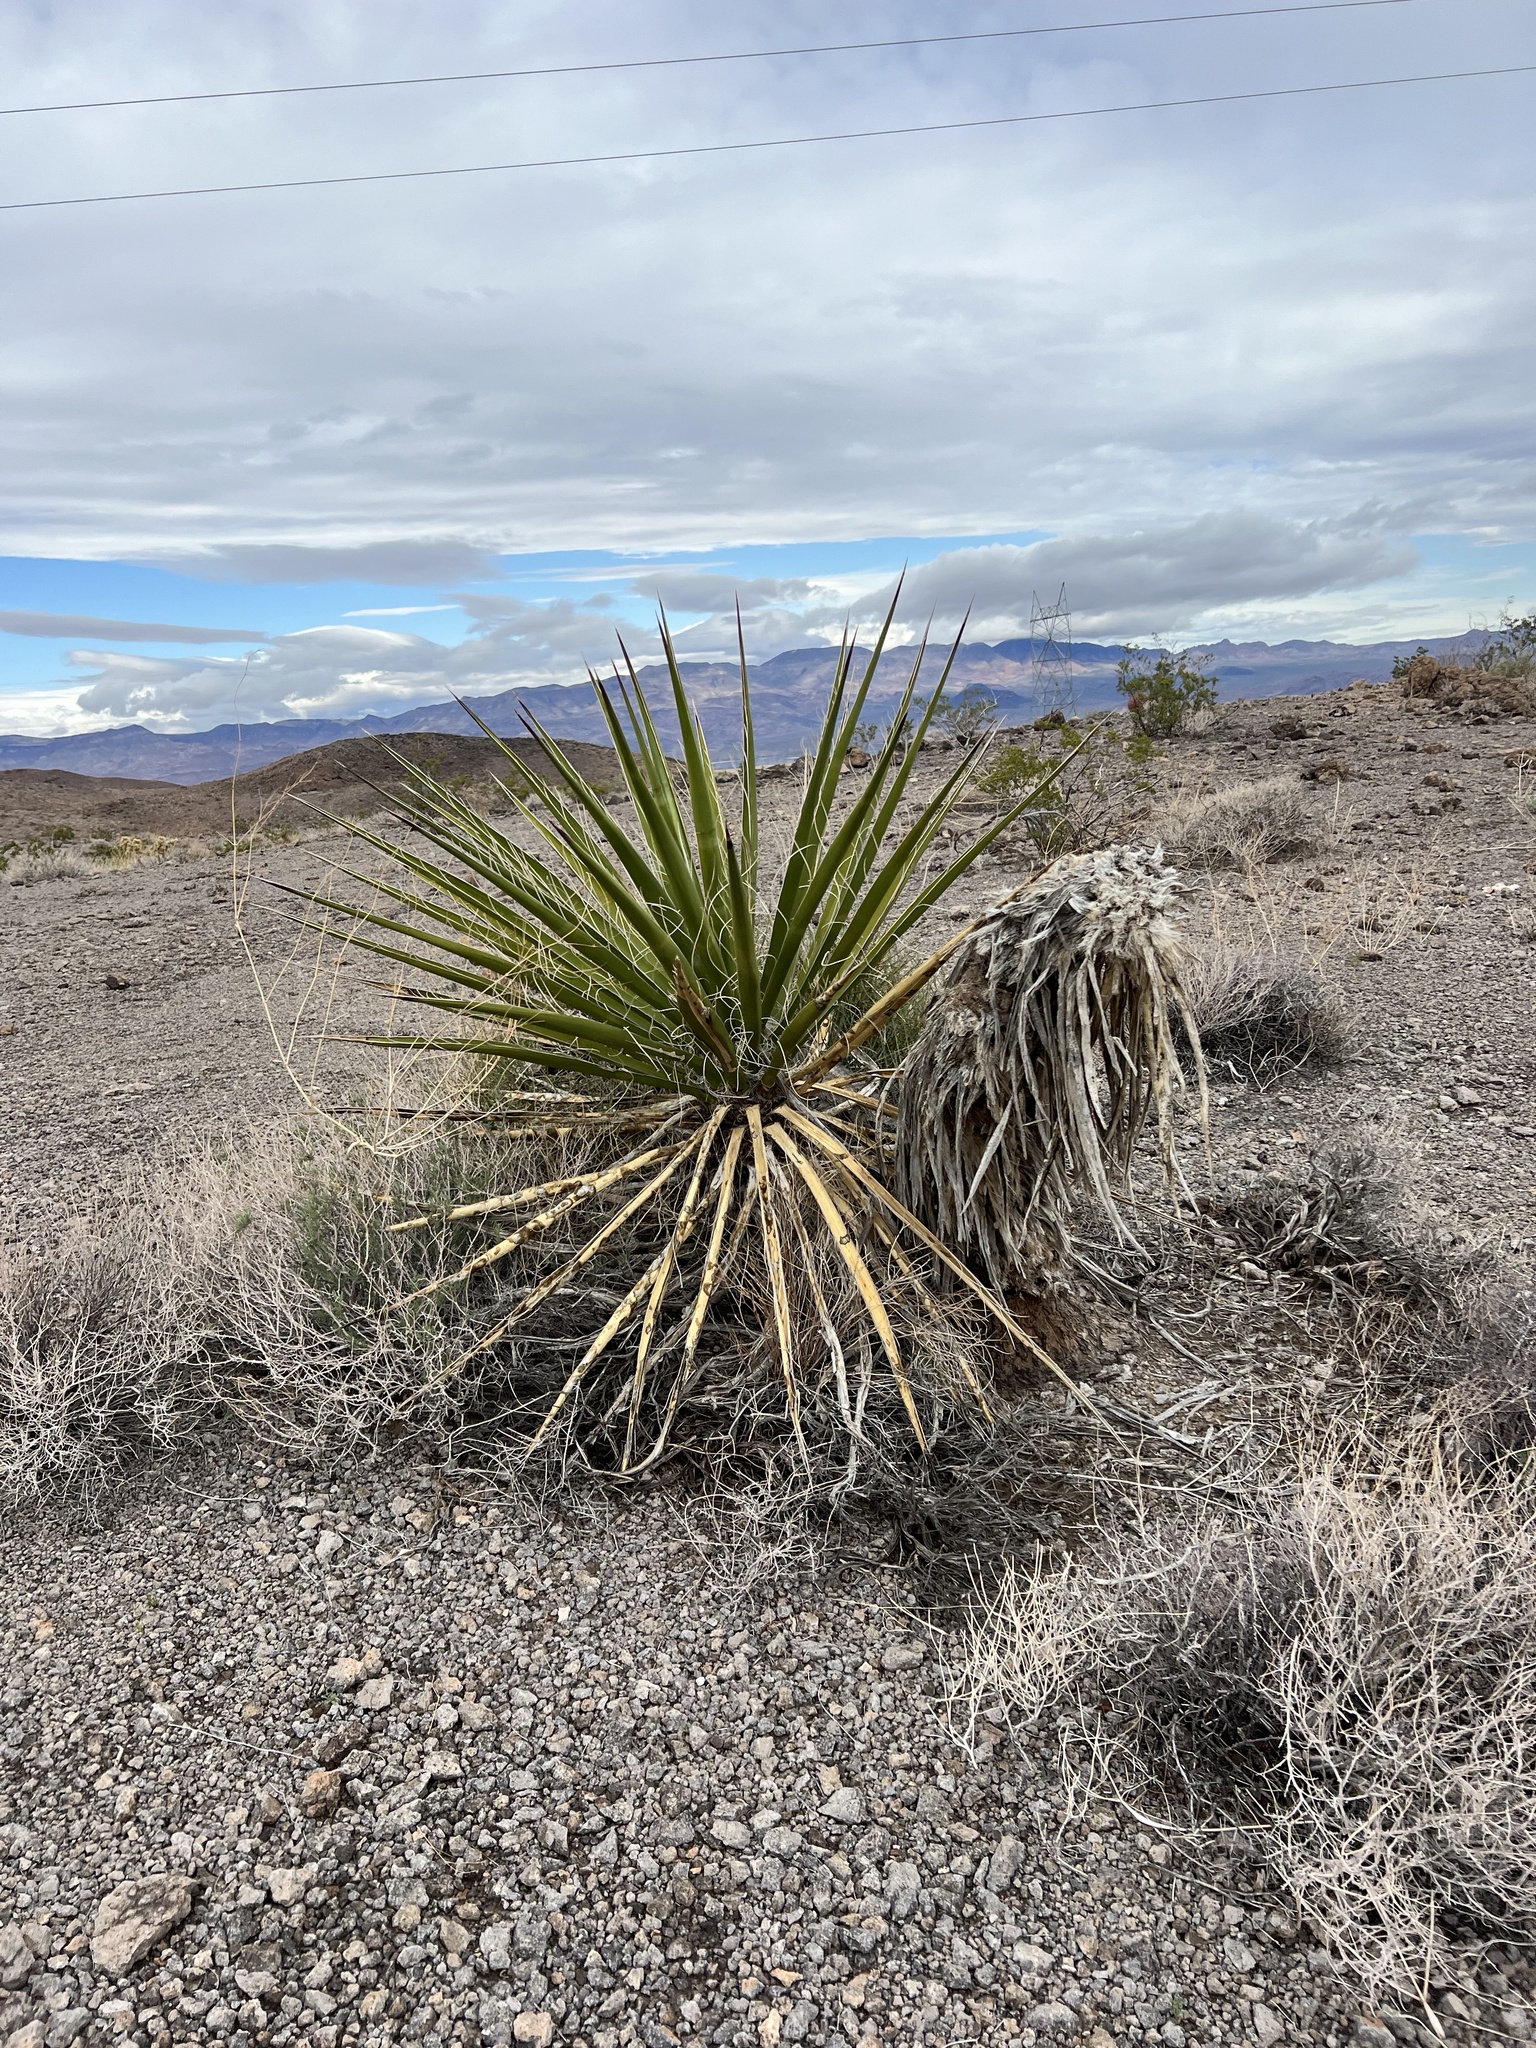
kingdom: Plantae
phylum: Tracheophyta
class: Liliopsida
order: Asparagales
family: Asparagaceae
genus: Yucca
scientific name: Yucca schidigera
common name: Mojave yucca
